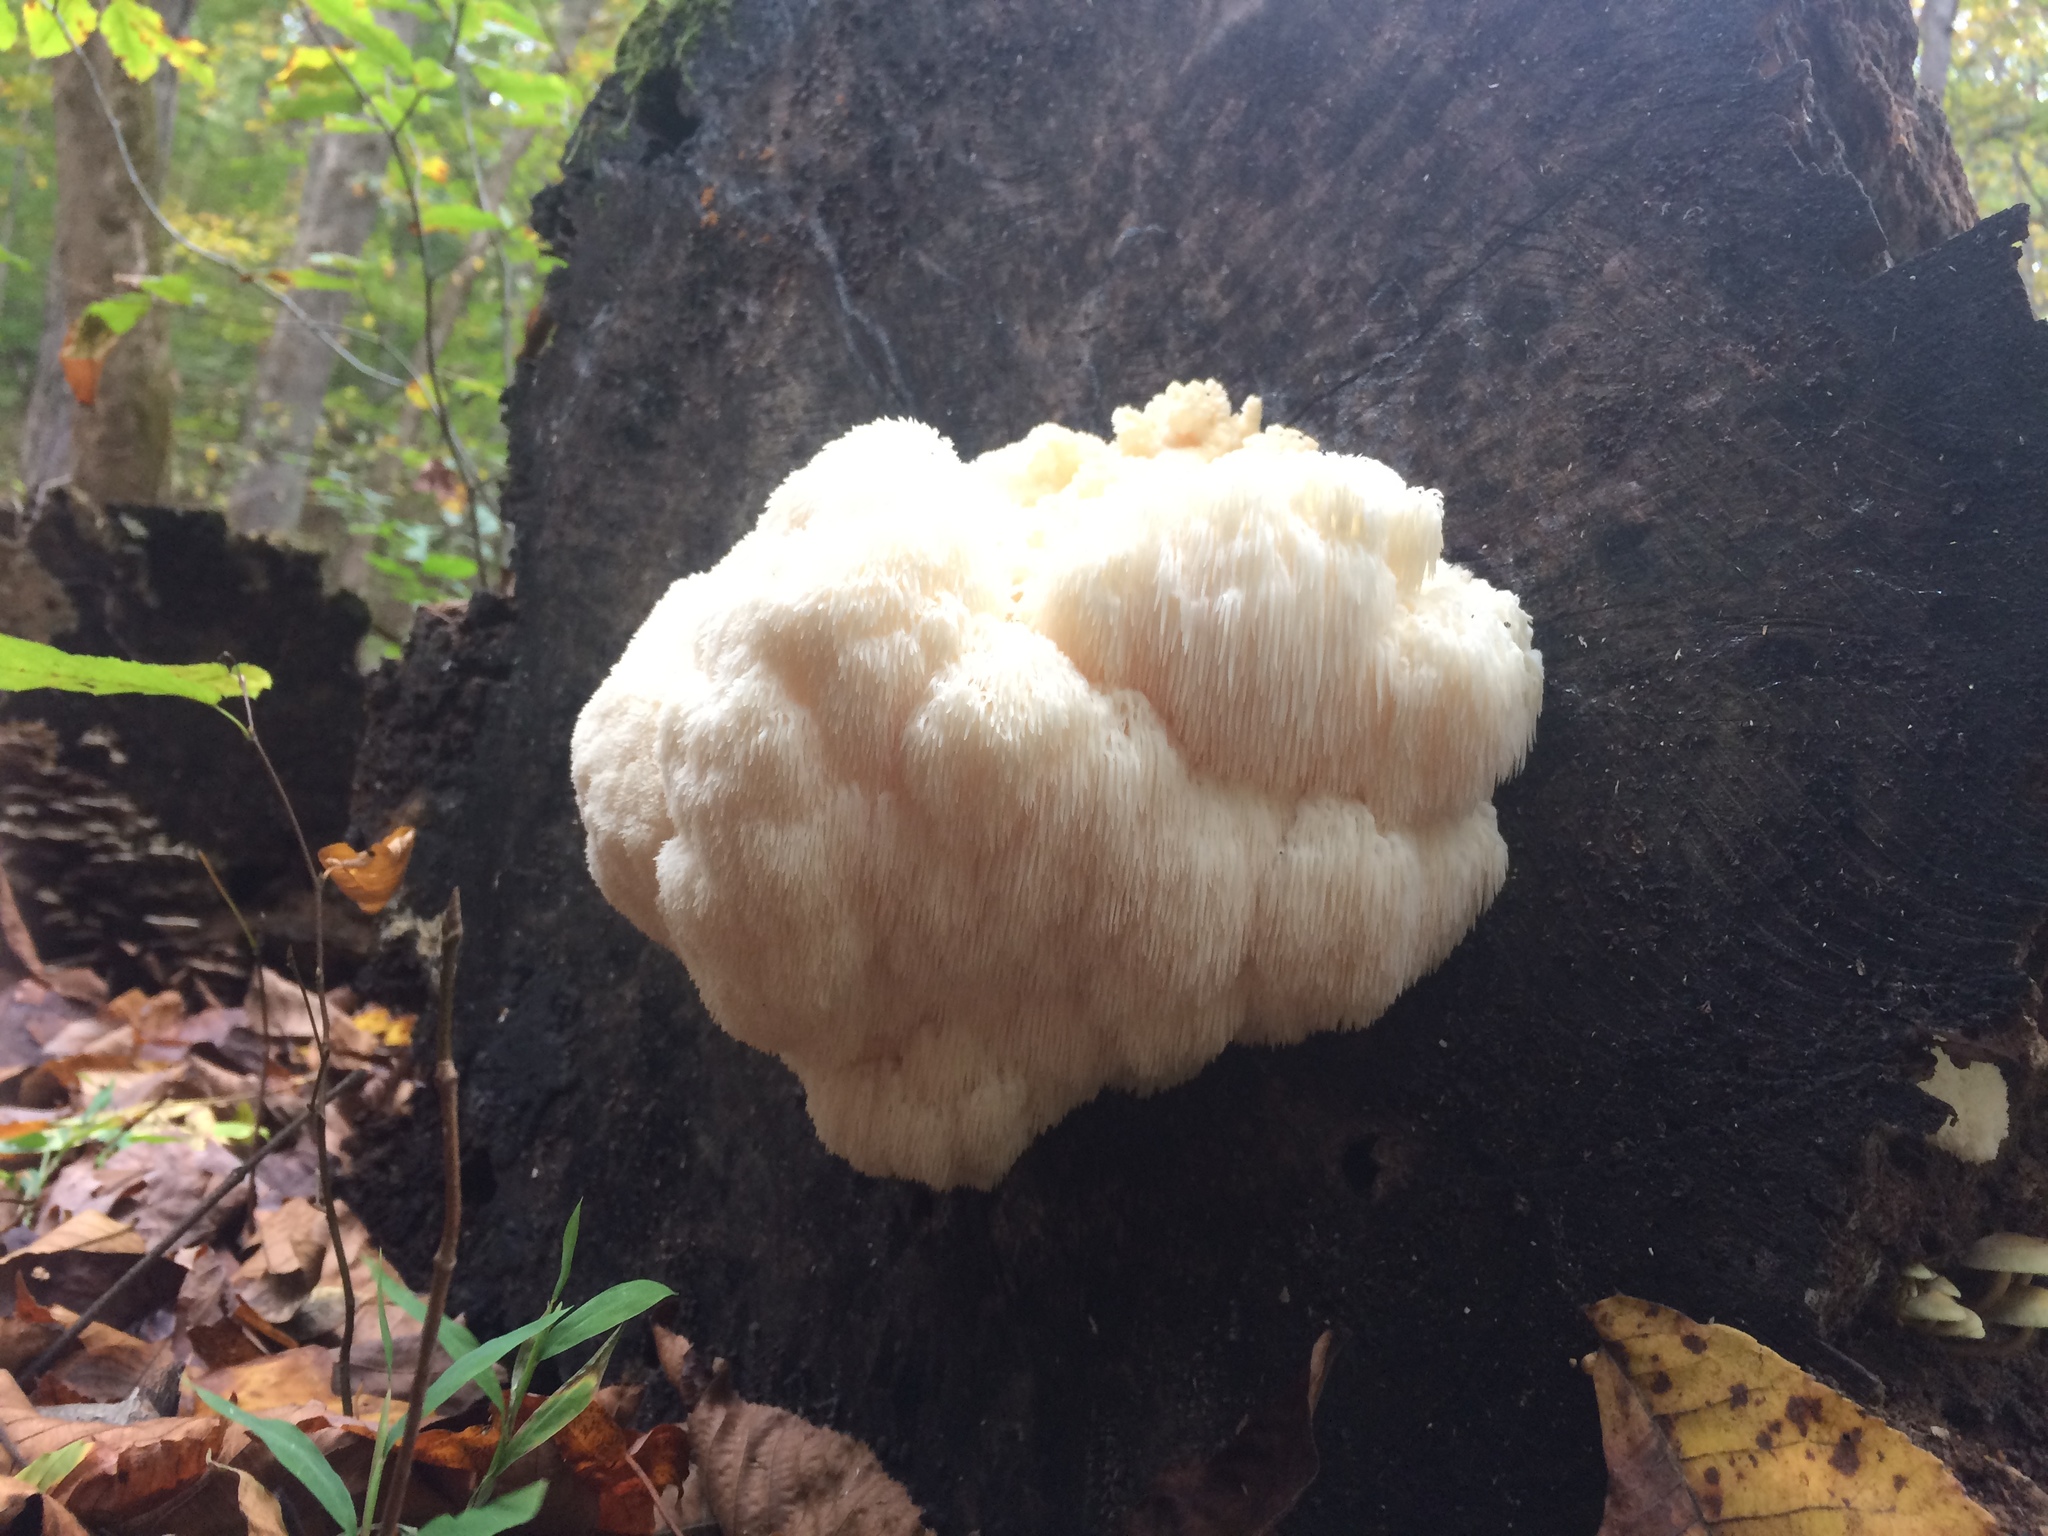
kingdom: Fungi
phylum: Basidiomycota
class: Agaricomycetes
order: Russulales
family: Hericiaceae
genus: Hericium
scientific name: Hericium erinaceus
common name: Bearded tooth
